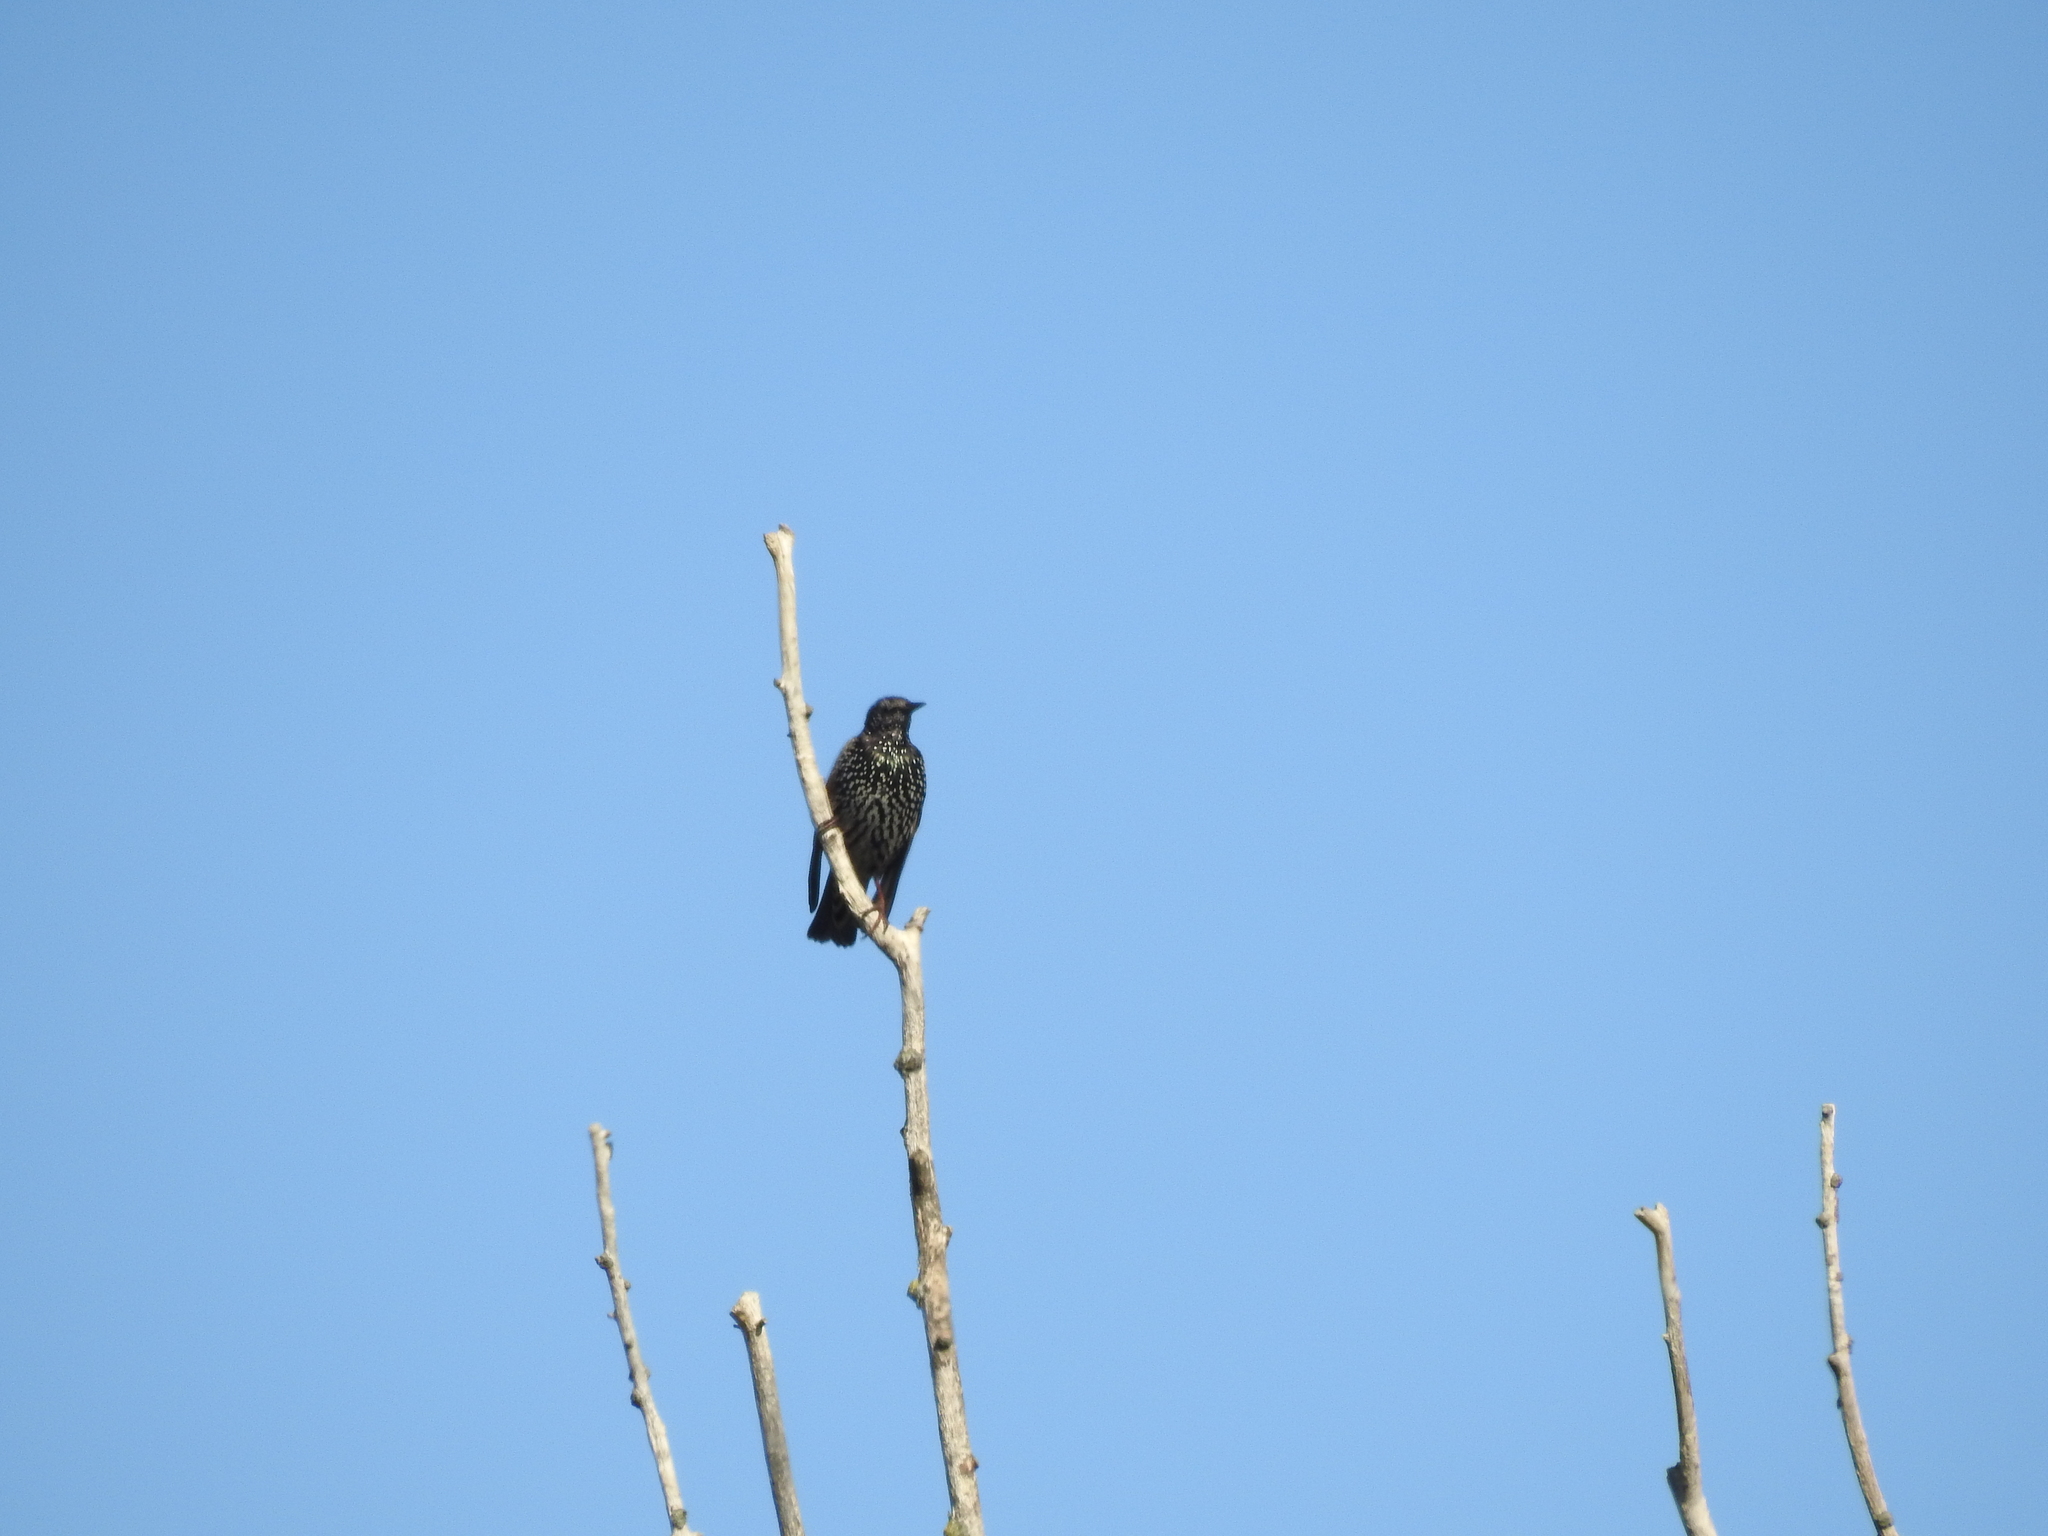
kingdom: Animalia
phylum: Chordata
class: Aves
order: Passeriformes
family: Sturnidae
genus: Sturnus
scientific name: Sturnus vulgaris
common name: Common starling
